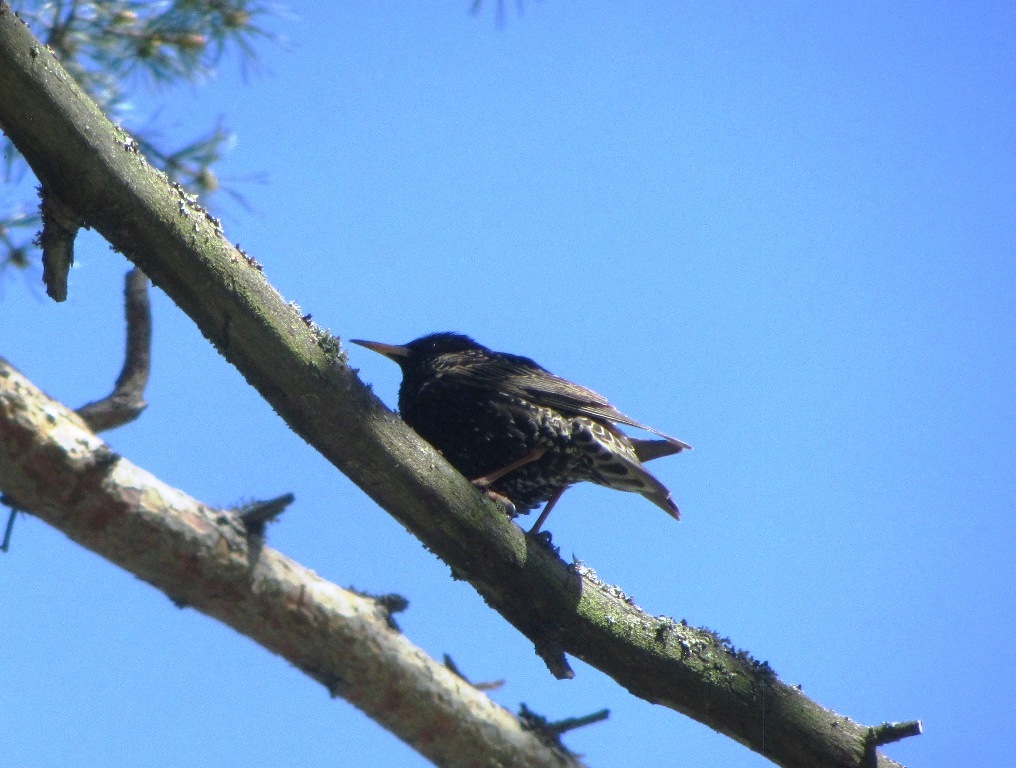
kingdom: Animalia
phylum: Chordata
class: Aves
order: Passeriformes
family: Sturnidae
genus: Sturnus
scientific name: Sturnus vulgaris
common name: Common starling
